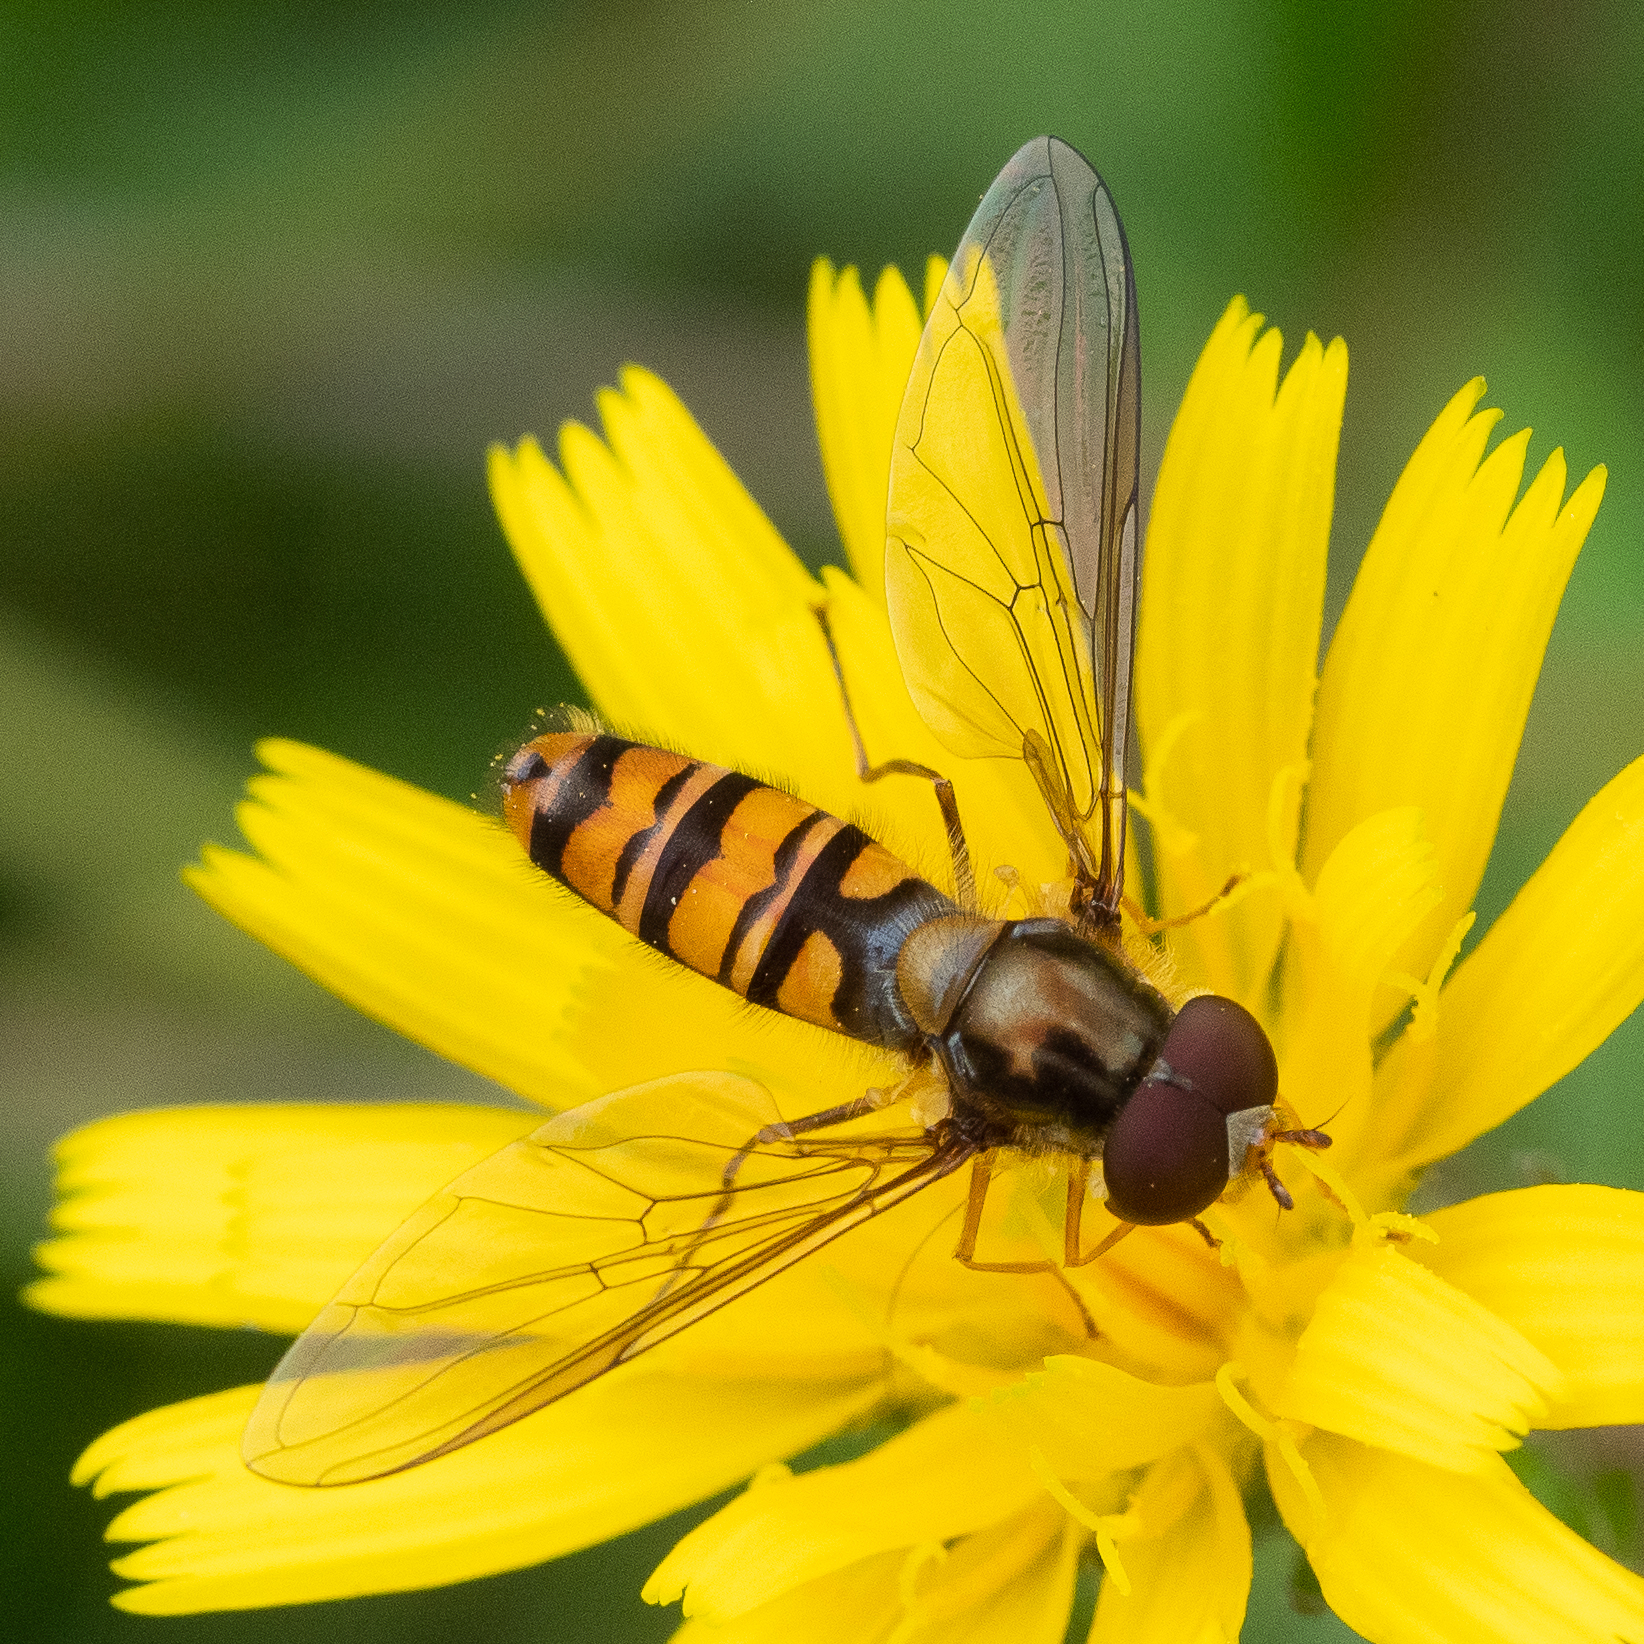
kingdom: Animalia
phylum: Arthropoda
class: Insecta
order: Diptera
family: Syrphidae
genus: Episyrphus
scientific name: Episyrphus balteatus
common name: Marmalade hoverfly
